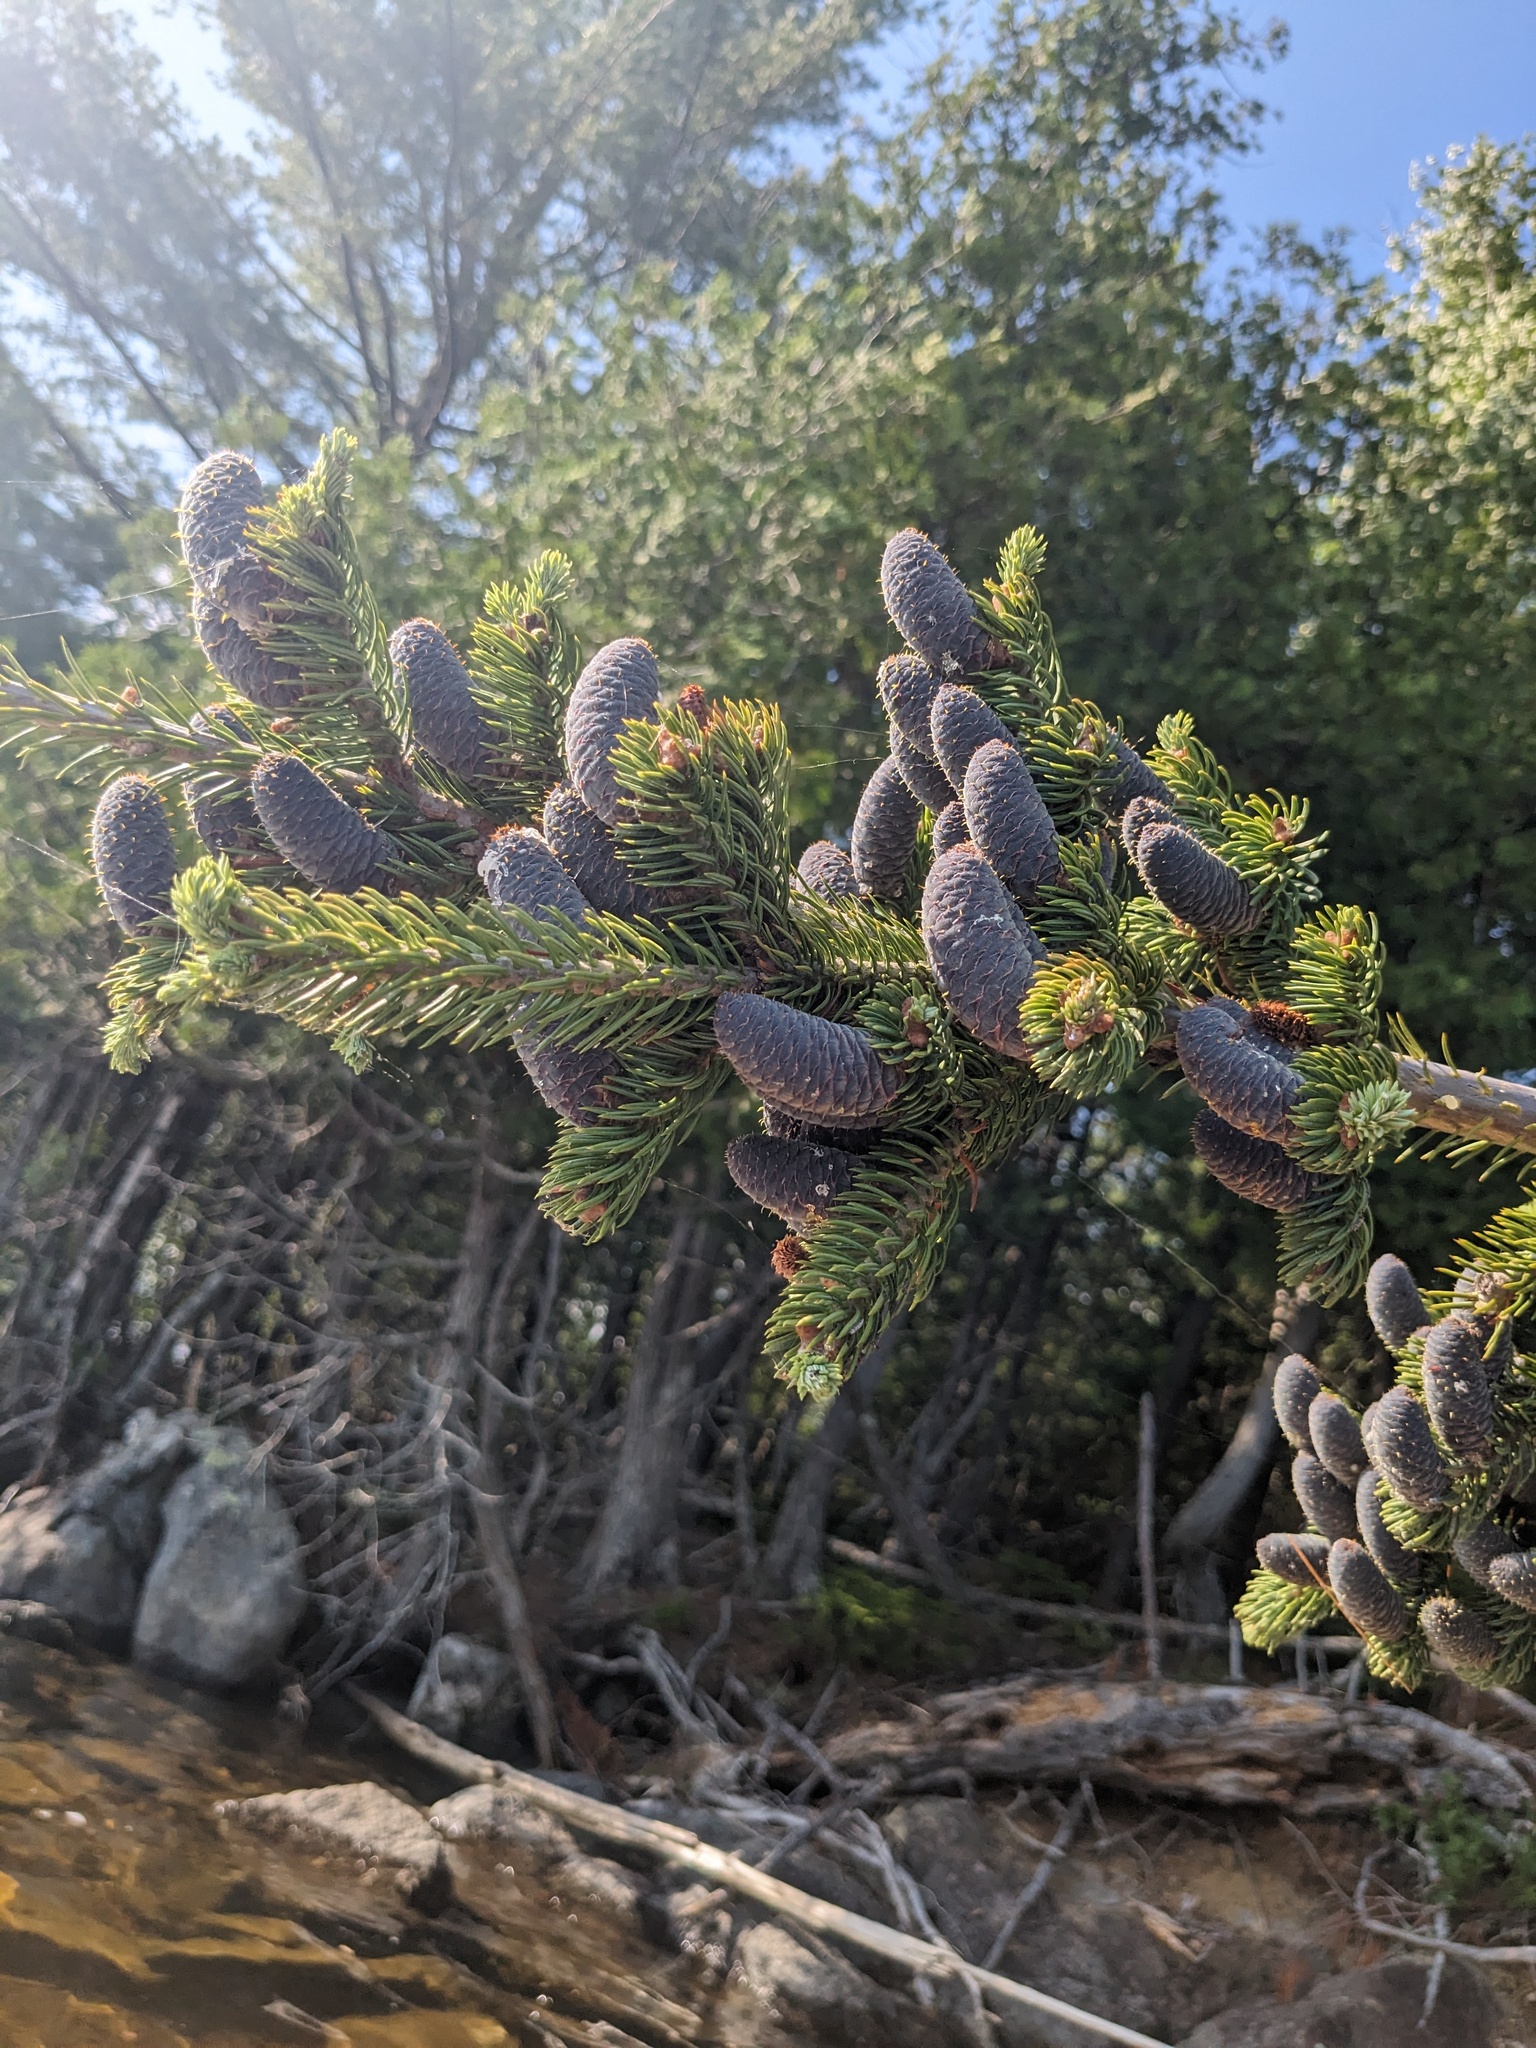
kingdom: Plantae
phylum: Tracheophyta
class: Pinopsida
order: Pinales
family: Pinaceae
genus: Abies
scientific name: Abies balsamea
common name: Balsam fir
